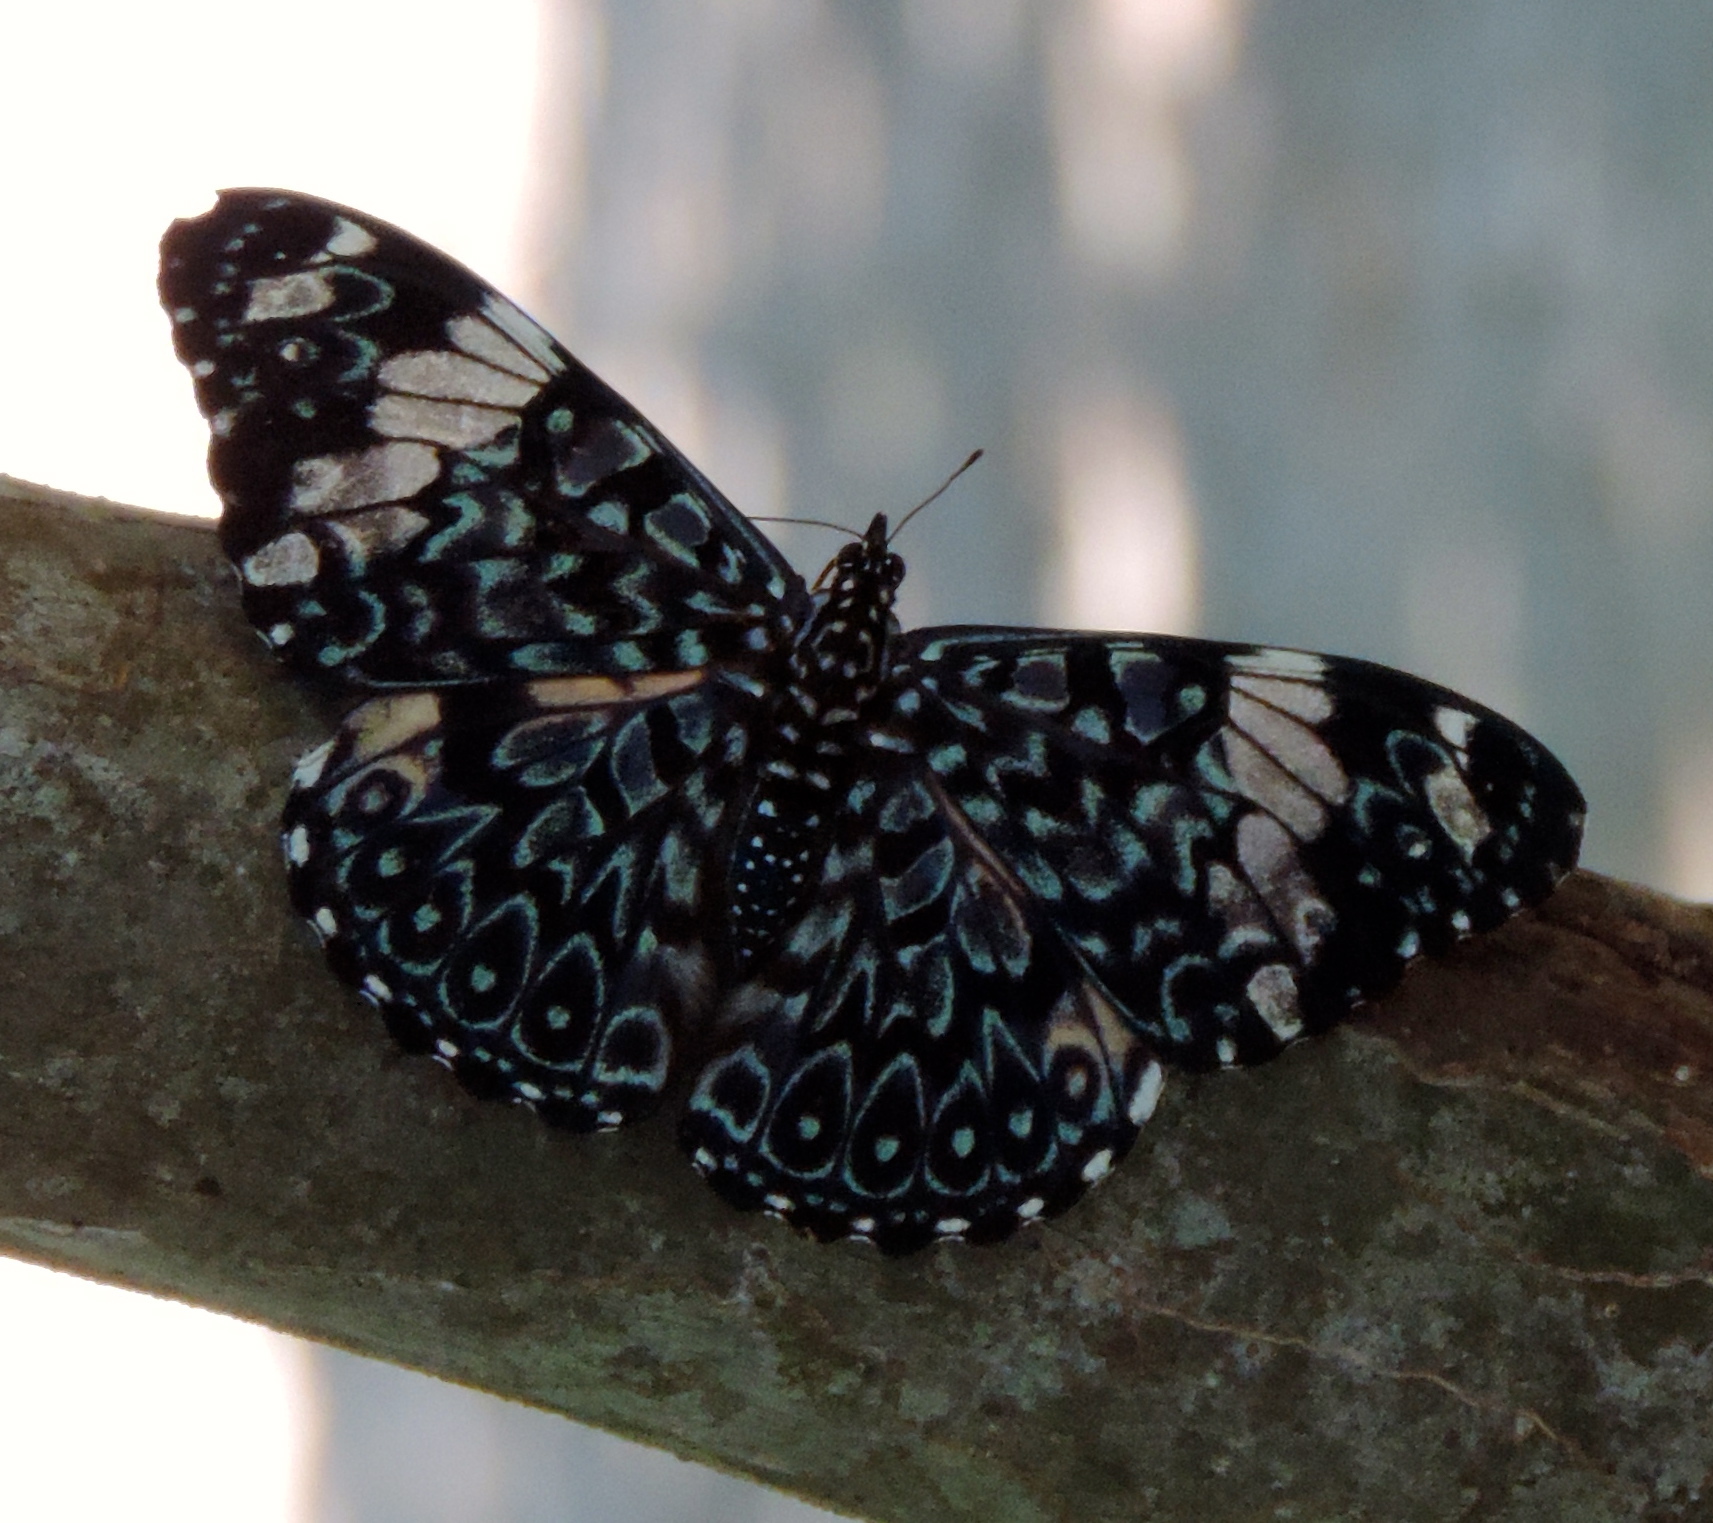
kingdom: Animalia
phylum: Arthropoda
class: Insecta
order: Lepidoptera
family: Nymphalidae
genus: Hamadryas
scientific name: Hamadryas amphinome
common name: Red cracker
